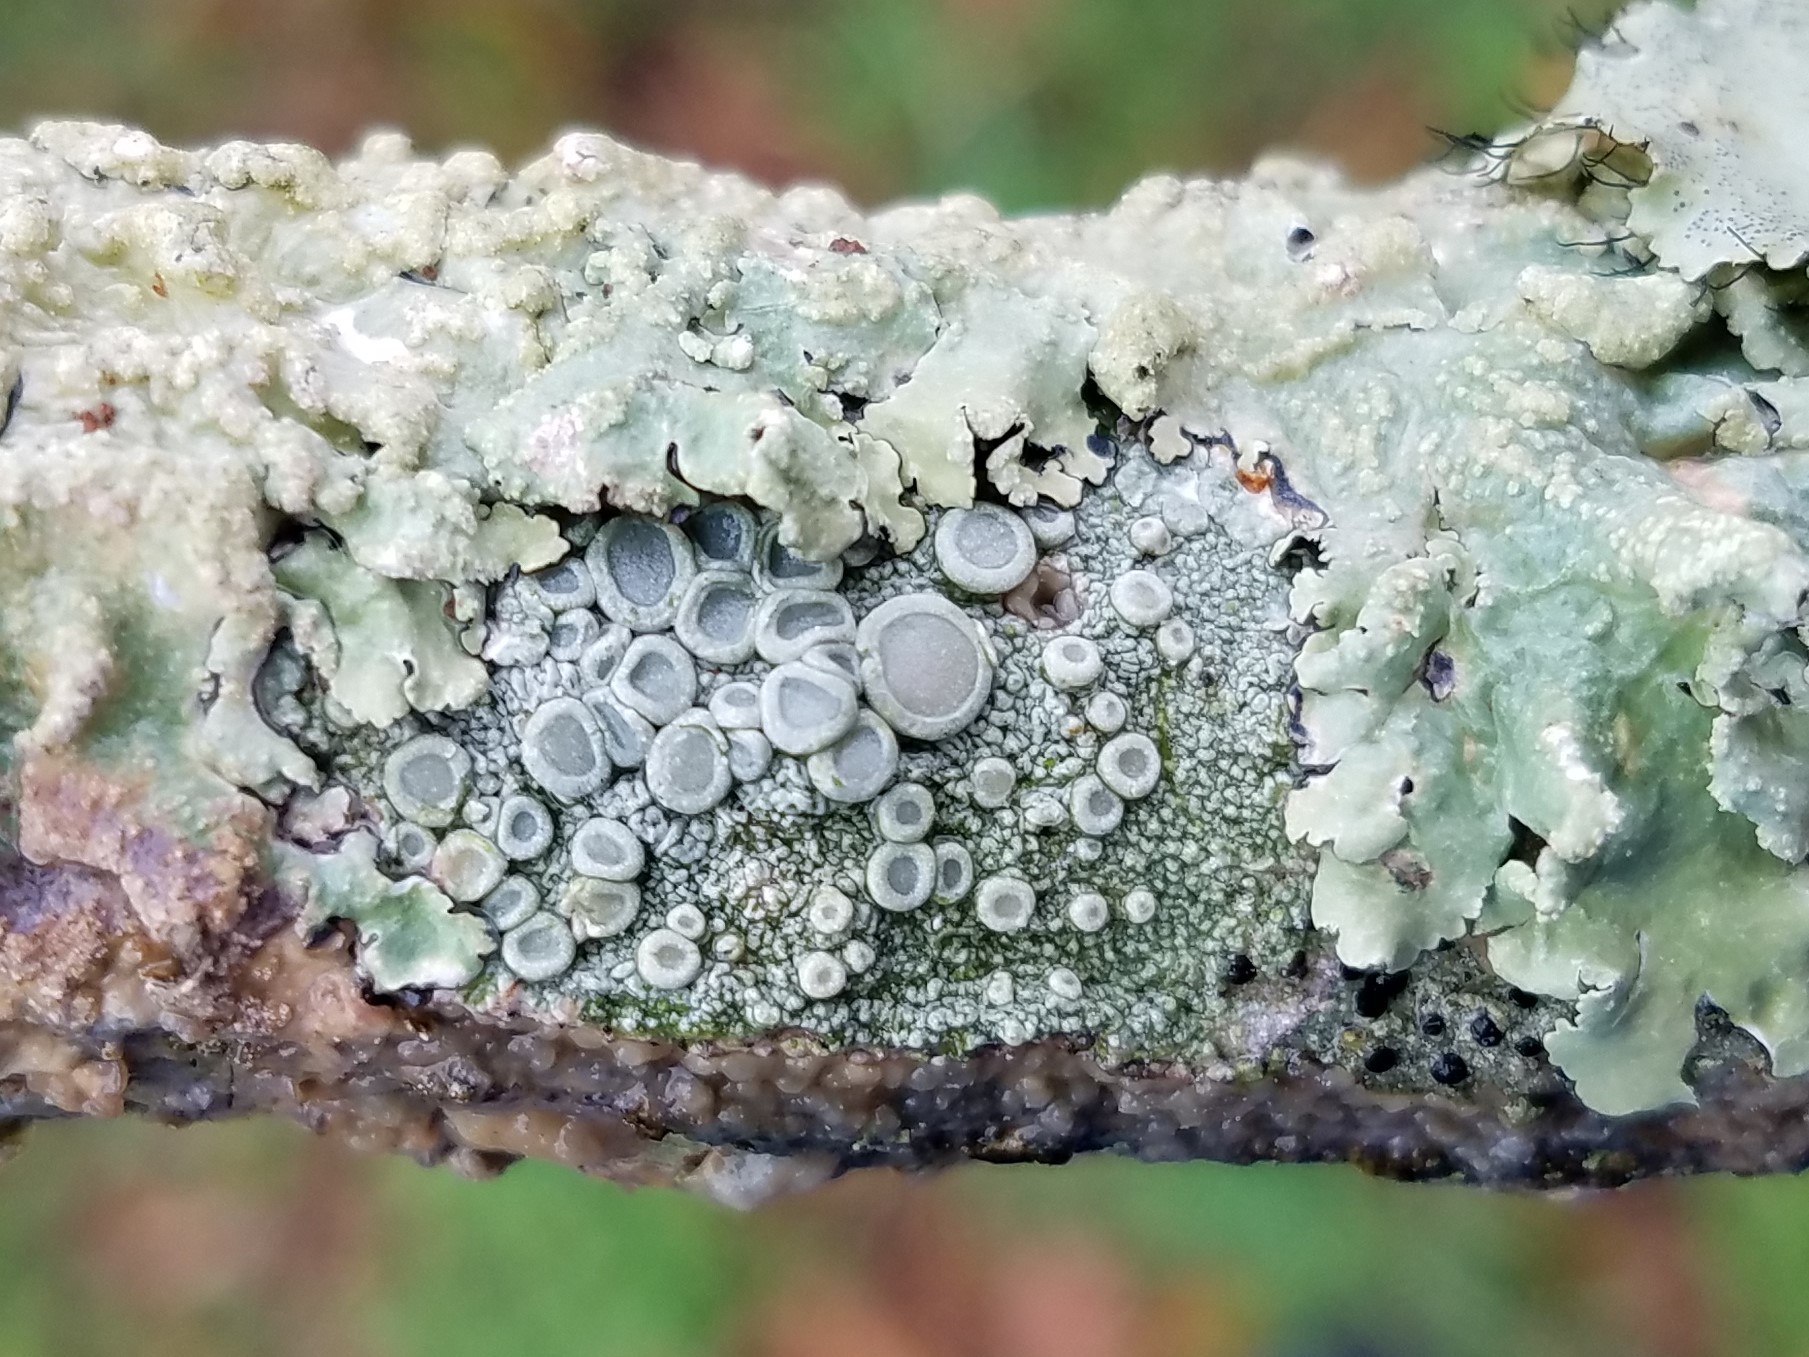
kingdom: Fungi
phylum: Ascomycota
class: Lecanoromycetes
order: Pertusariales
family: Ochrolechiaceae
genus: Ochrolechia
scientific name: Ochrolechia africana
